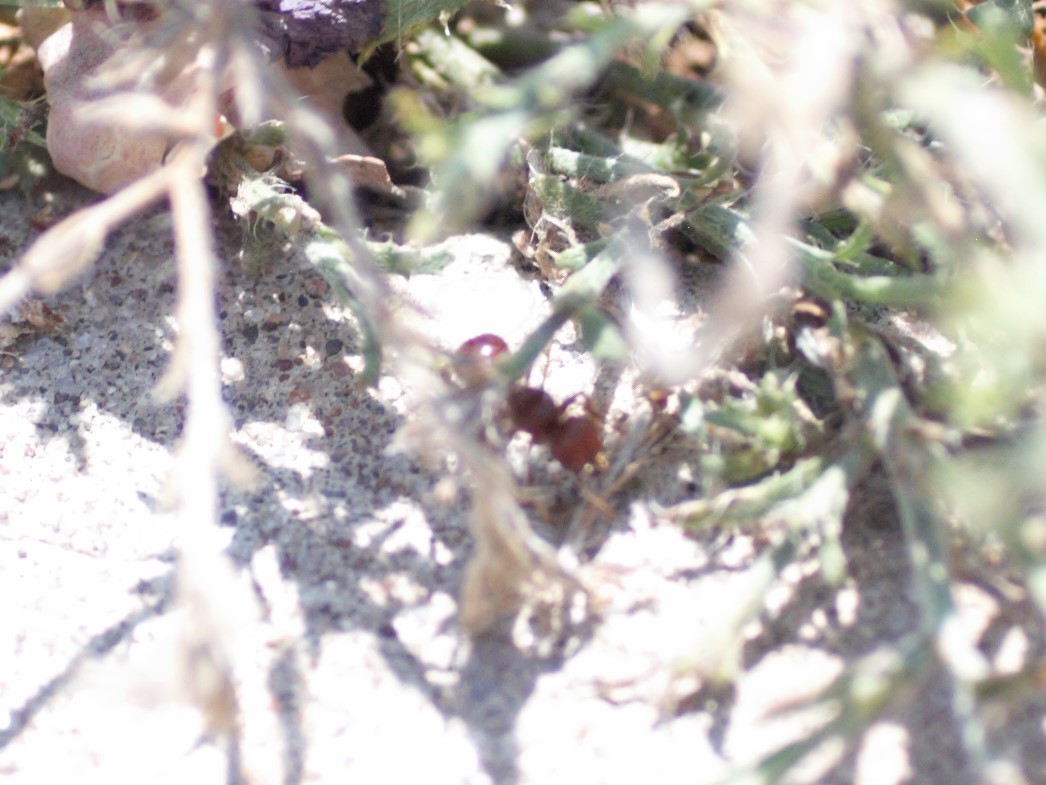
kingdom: Animalia
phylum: Arthropoda
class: Insecta
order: Hymenoptera
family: Formicidae
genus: Pogonomyrmex
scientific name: Pogonomyrmex
